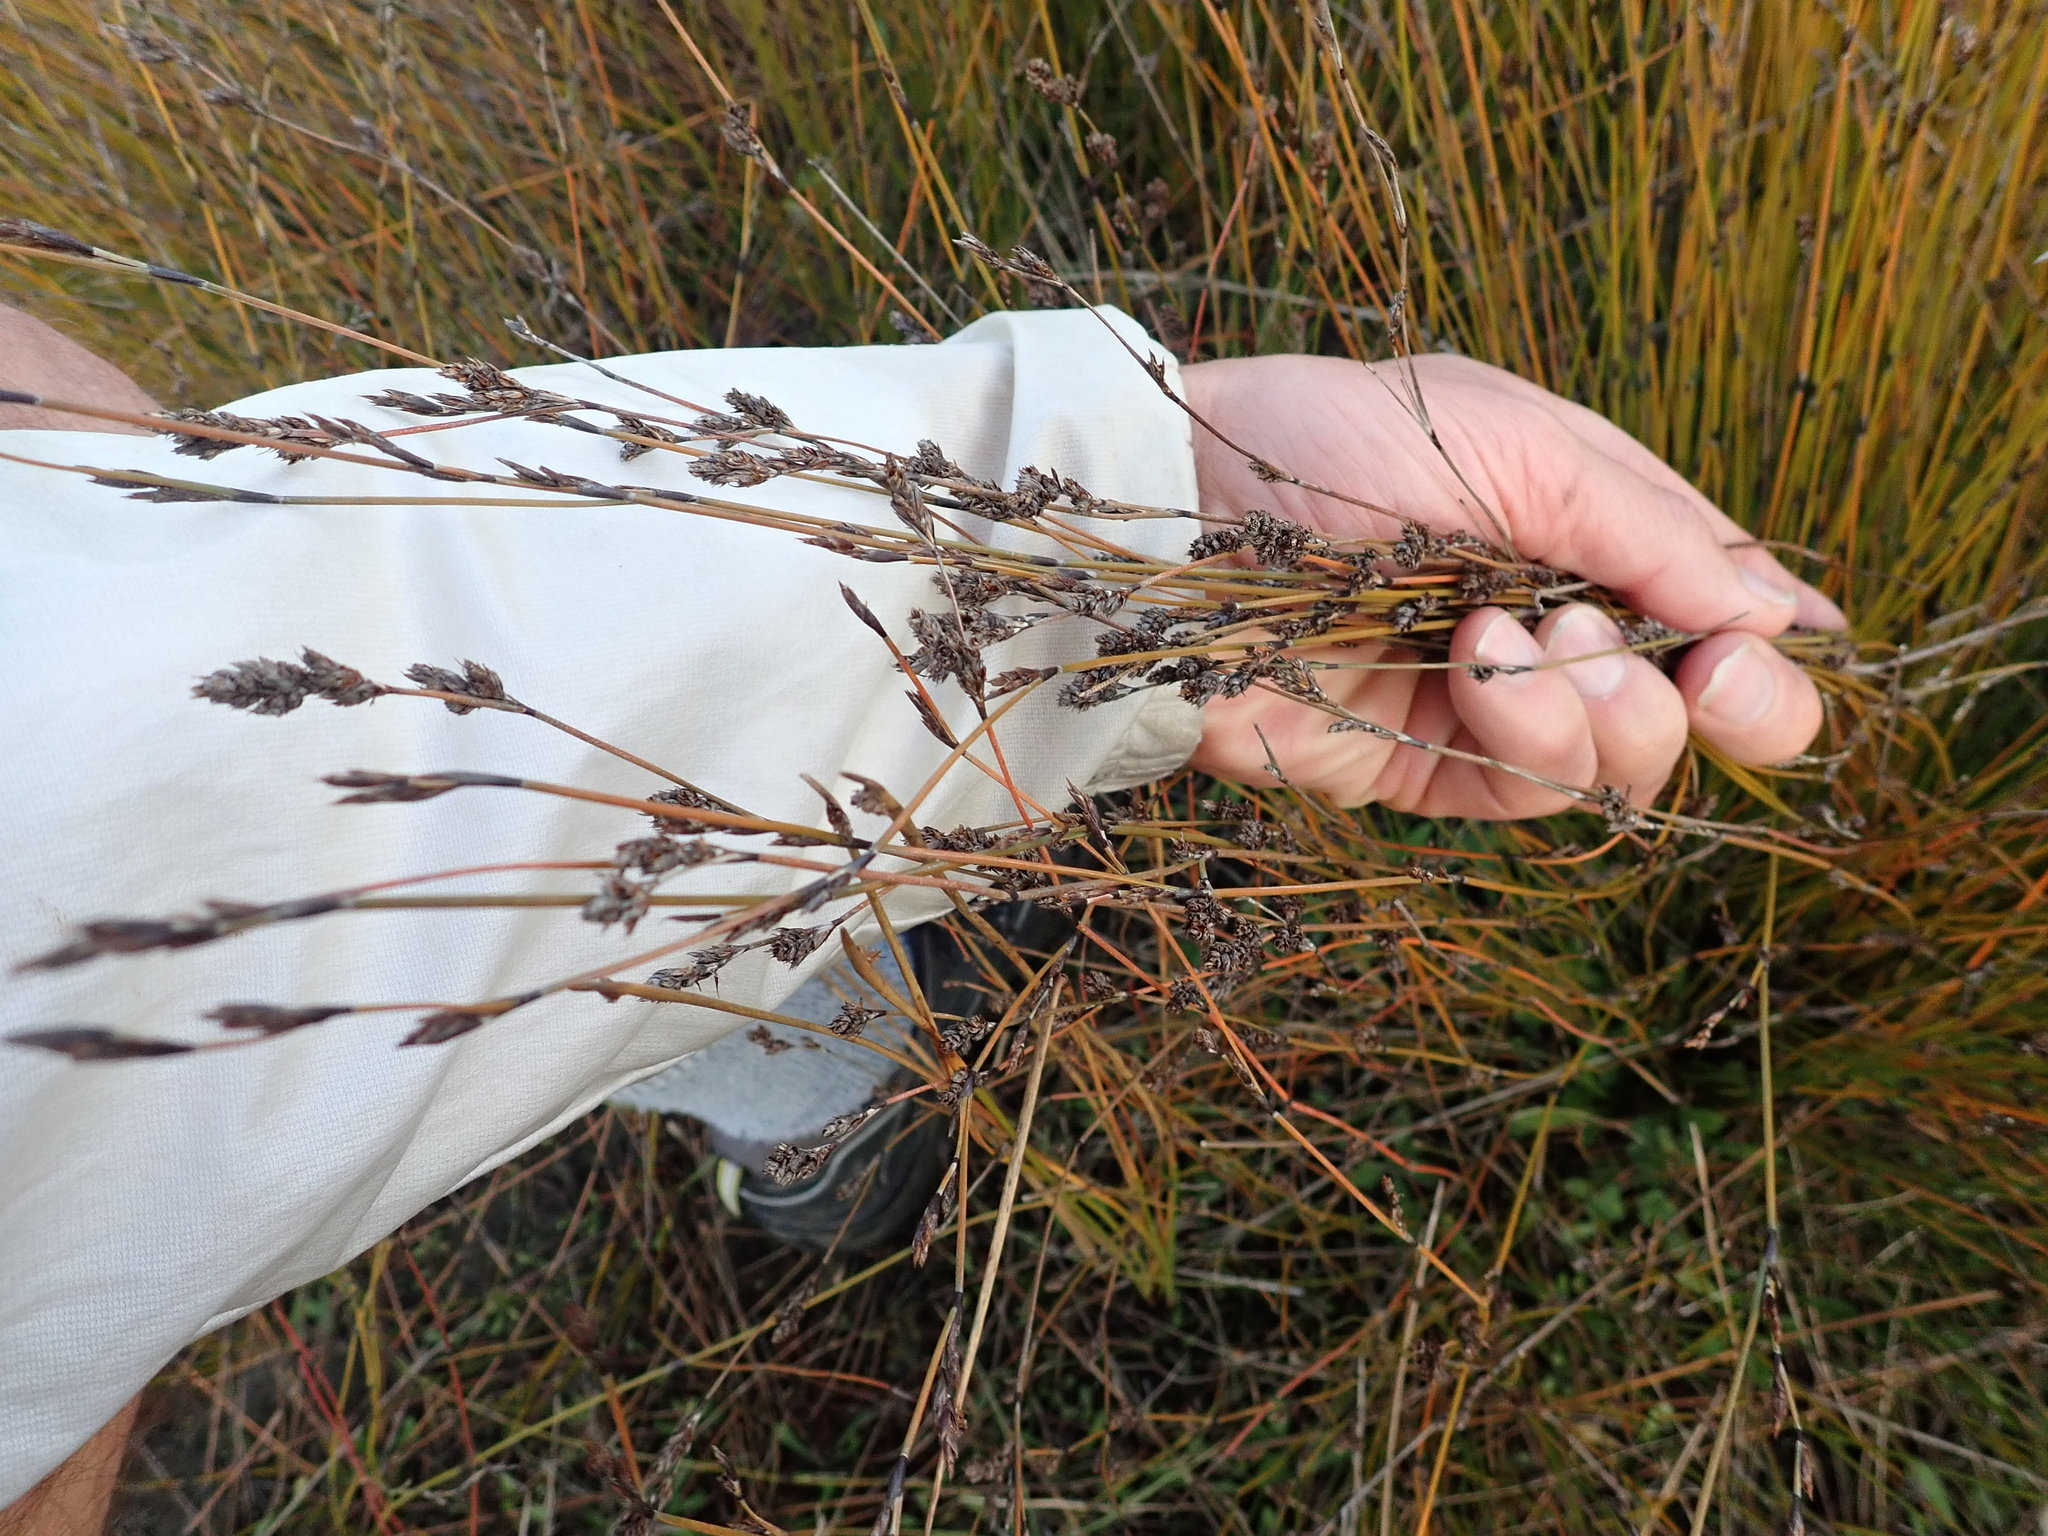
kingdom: Plantae
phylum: Tracheophyta
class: Liliopsida
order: Poales
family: Restionaceae
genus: Apodasmia
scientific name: Apodasmia similis
